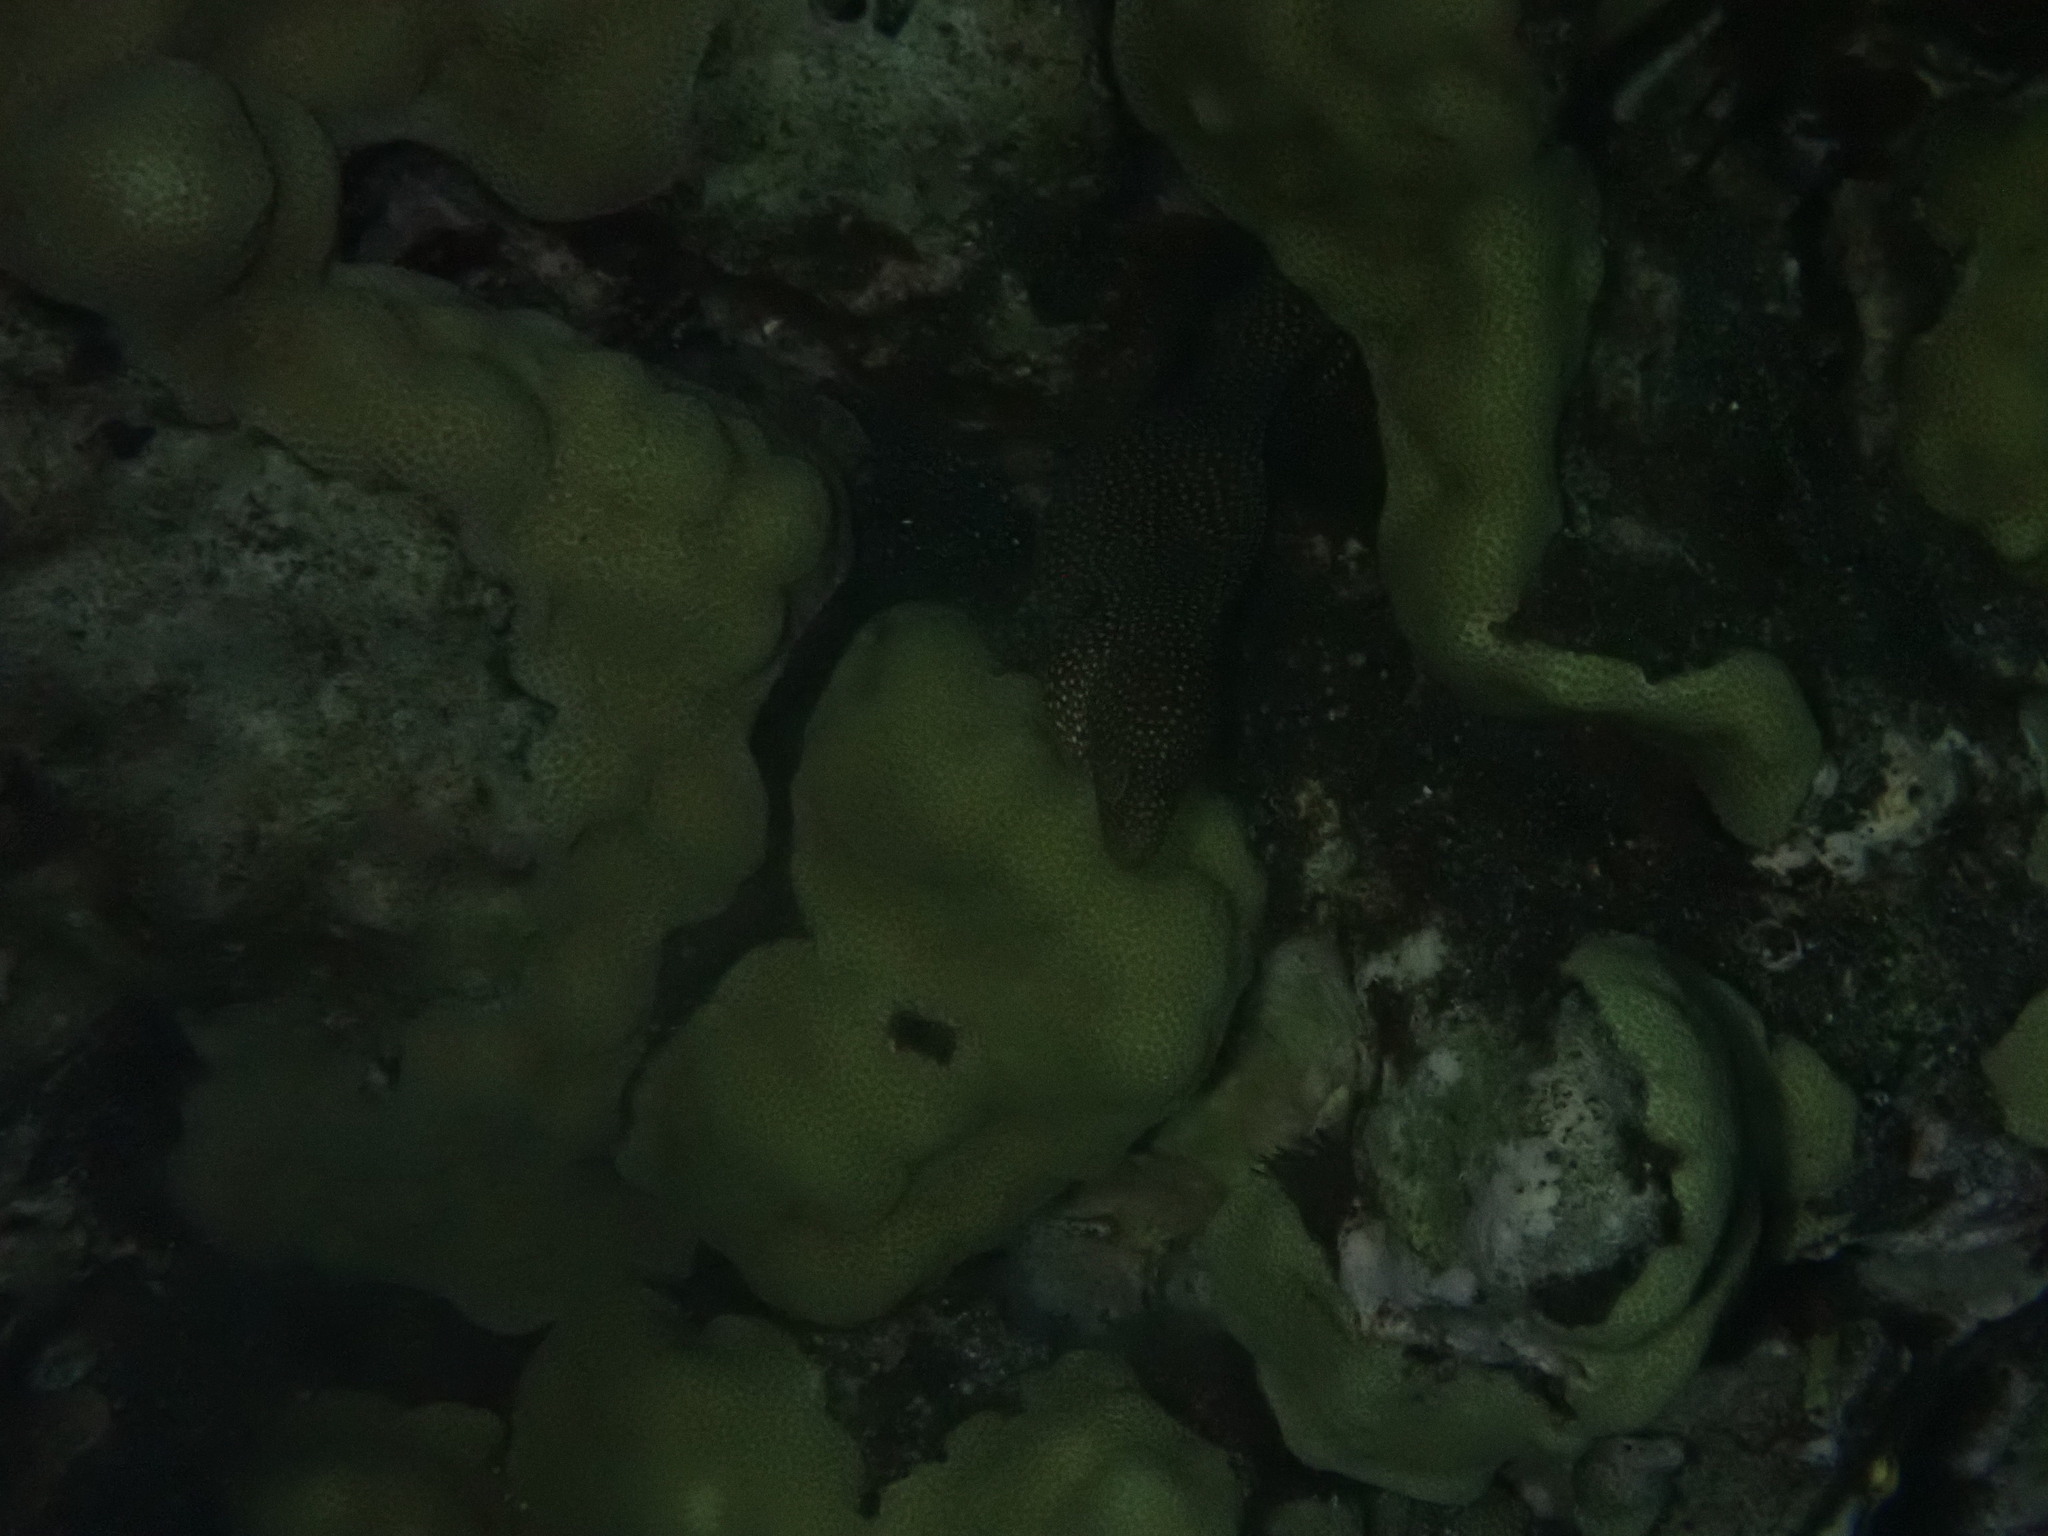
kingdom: Animalia
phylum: Chordata
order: Anguilliformes
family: Muraenidae
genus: Gymnothorax
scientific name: Gymnothorax meleagris
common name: Guineafowl moray
